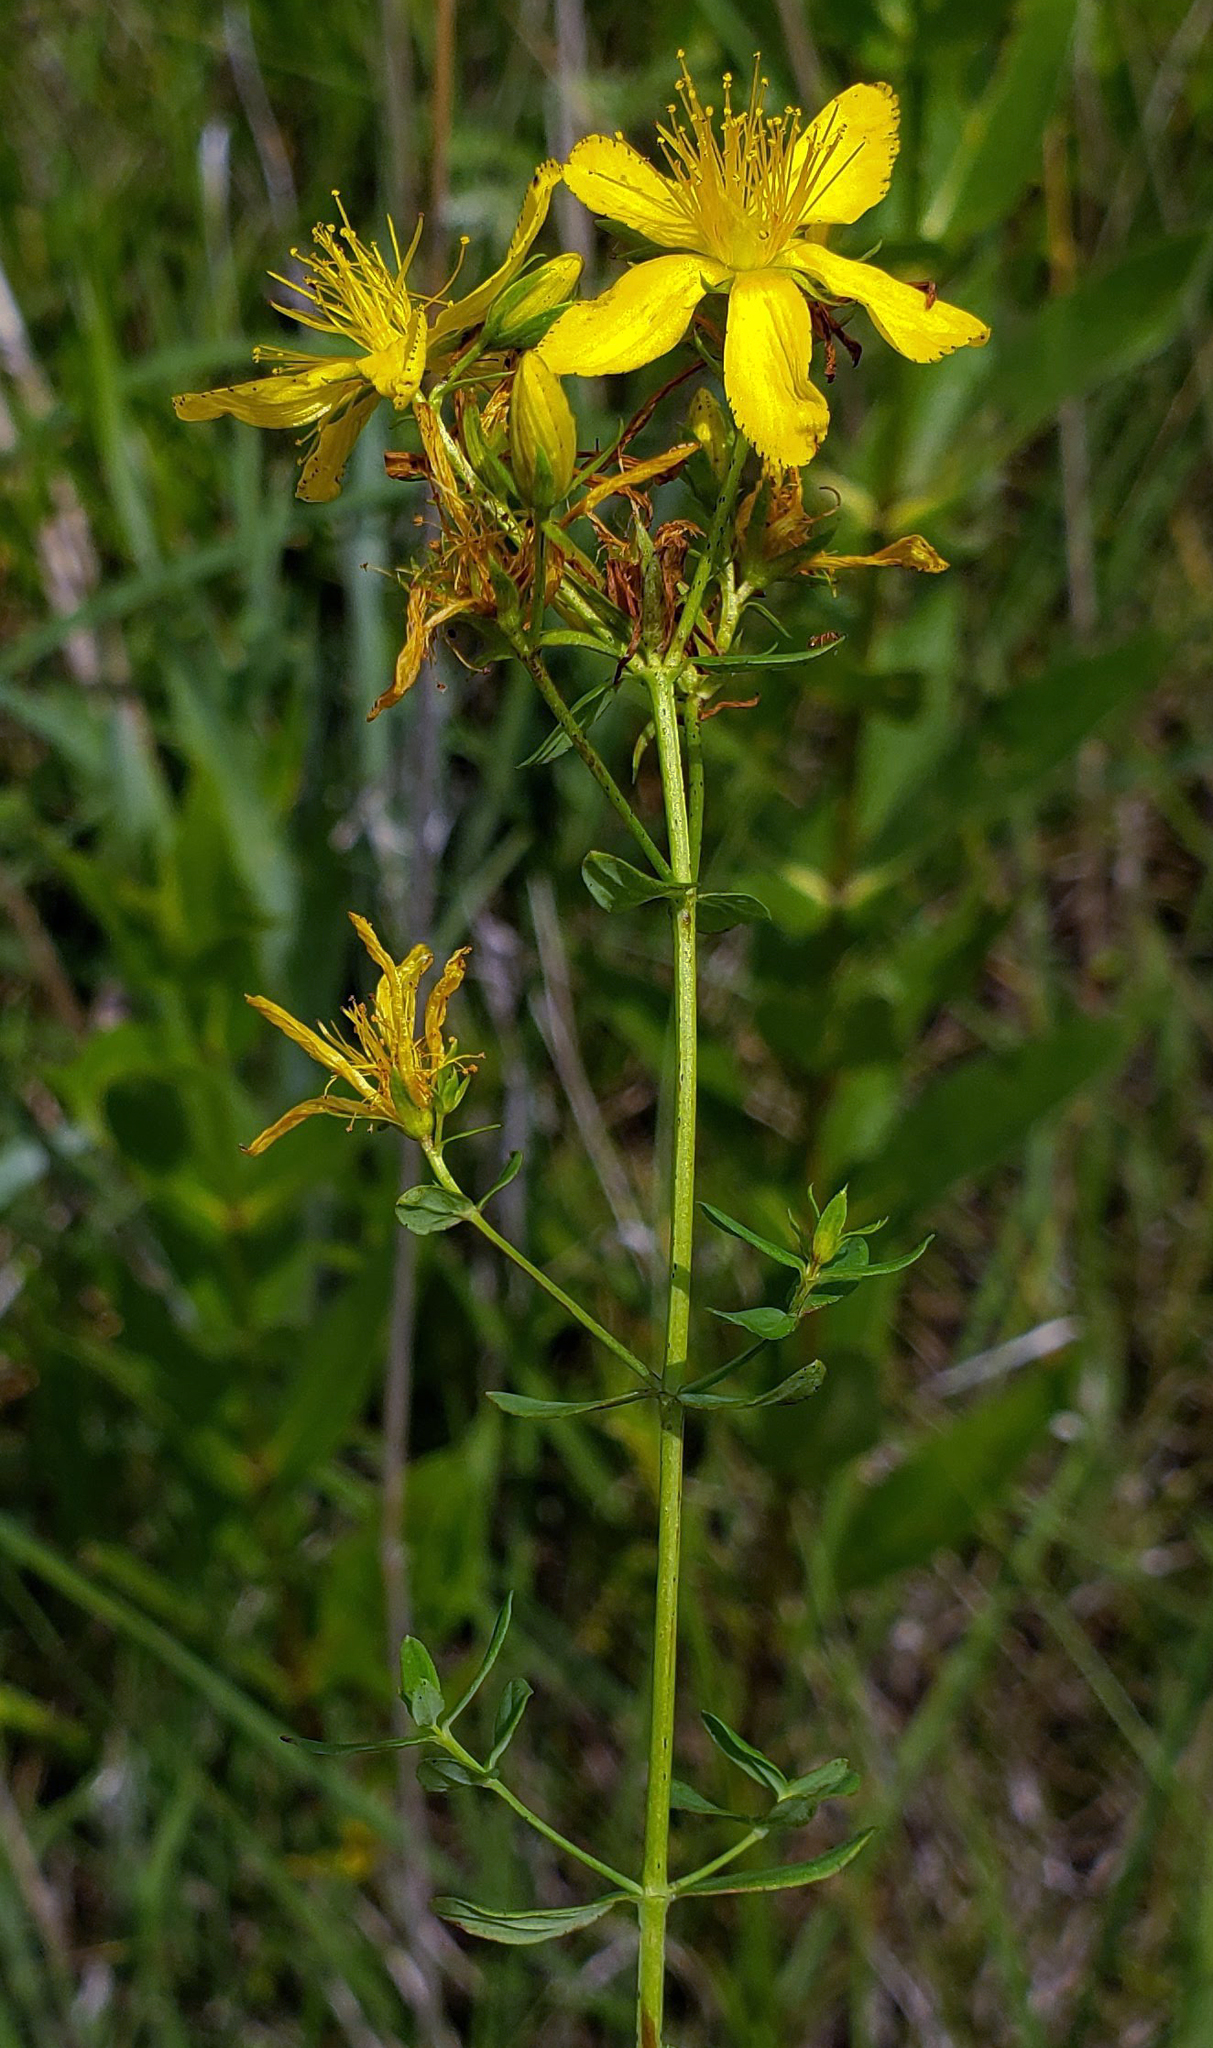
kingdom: Plantae
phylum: Tracheophyta
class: Magnoliopsida
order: Malpighiales
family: Hypericaceae
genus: Hypericum
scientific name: Hypericum perforatum
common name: Common st. johnswort
